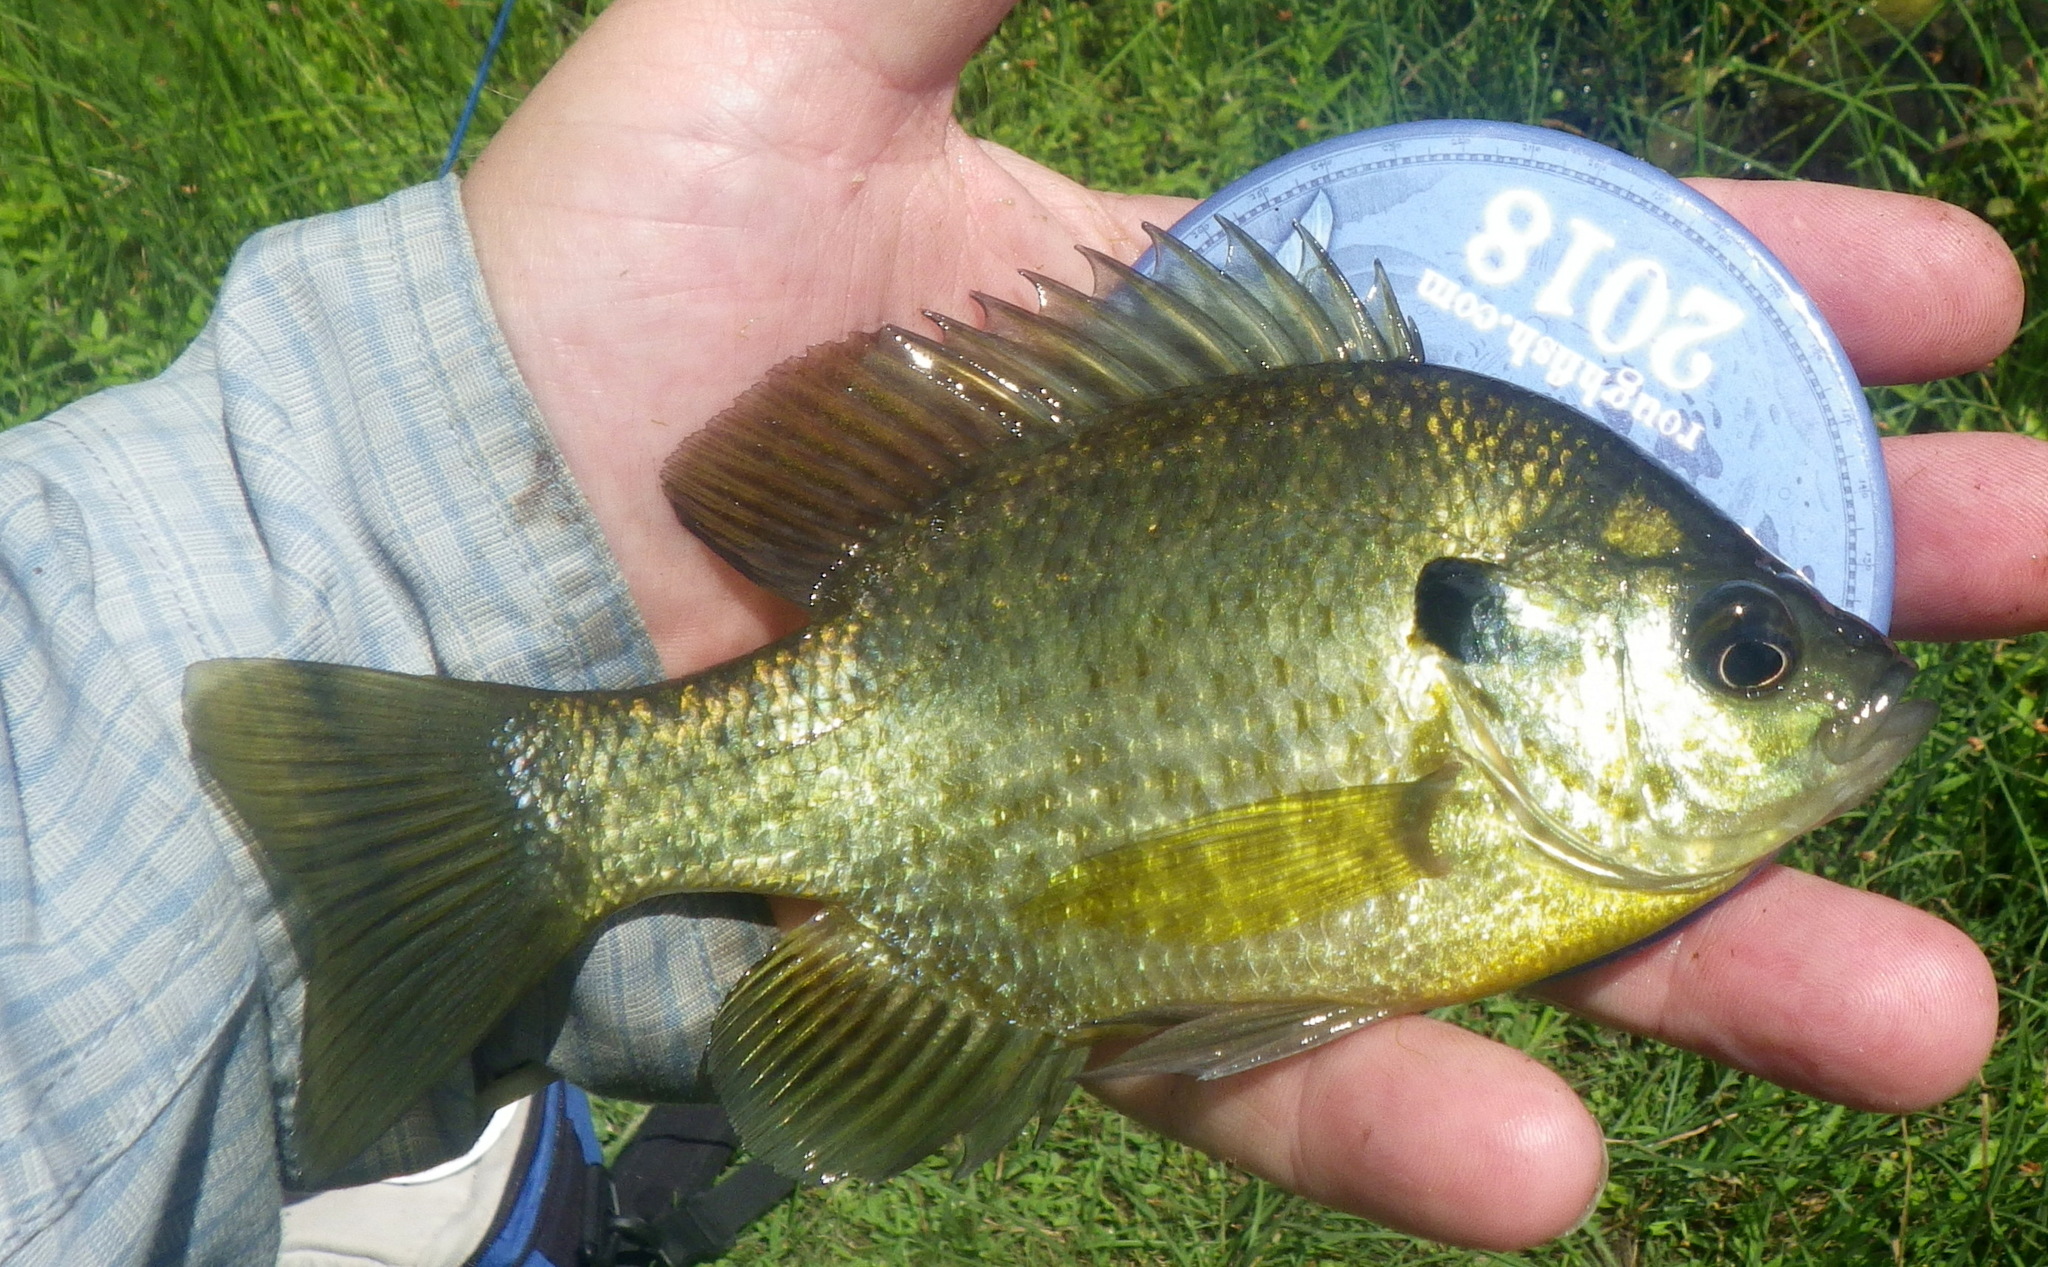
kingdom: Animalia
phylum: Chordata
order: Perciformes
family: Centrarchidae
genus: Lepomis
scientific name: Lepomis
